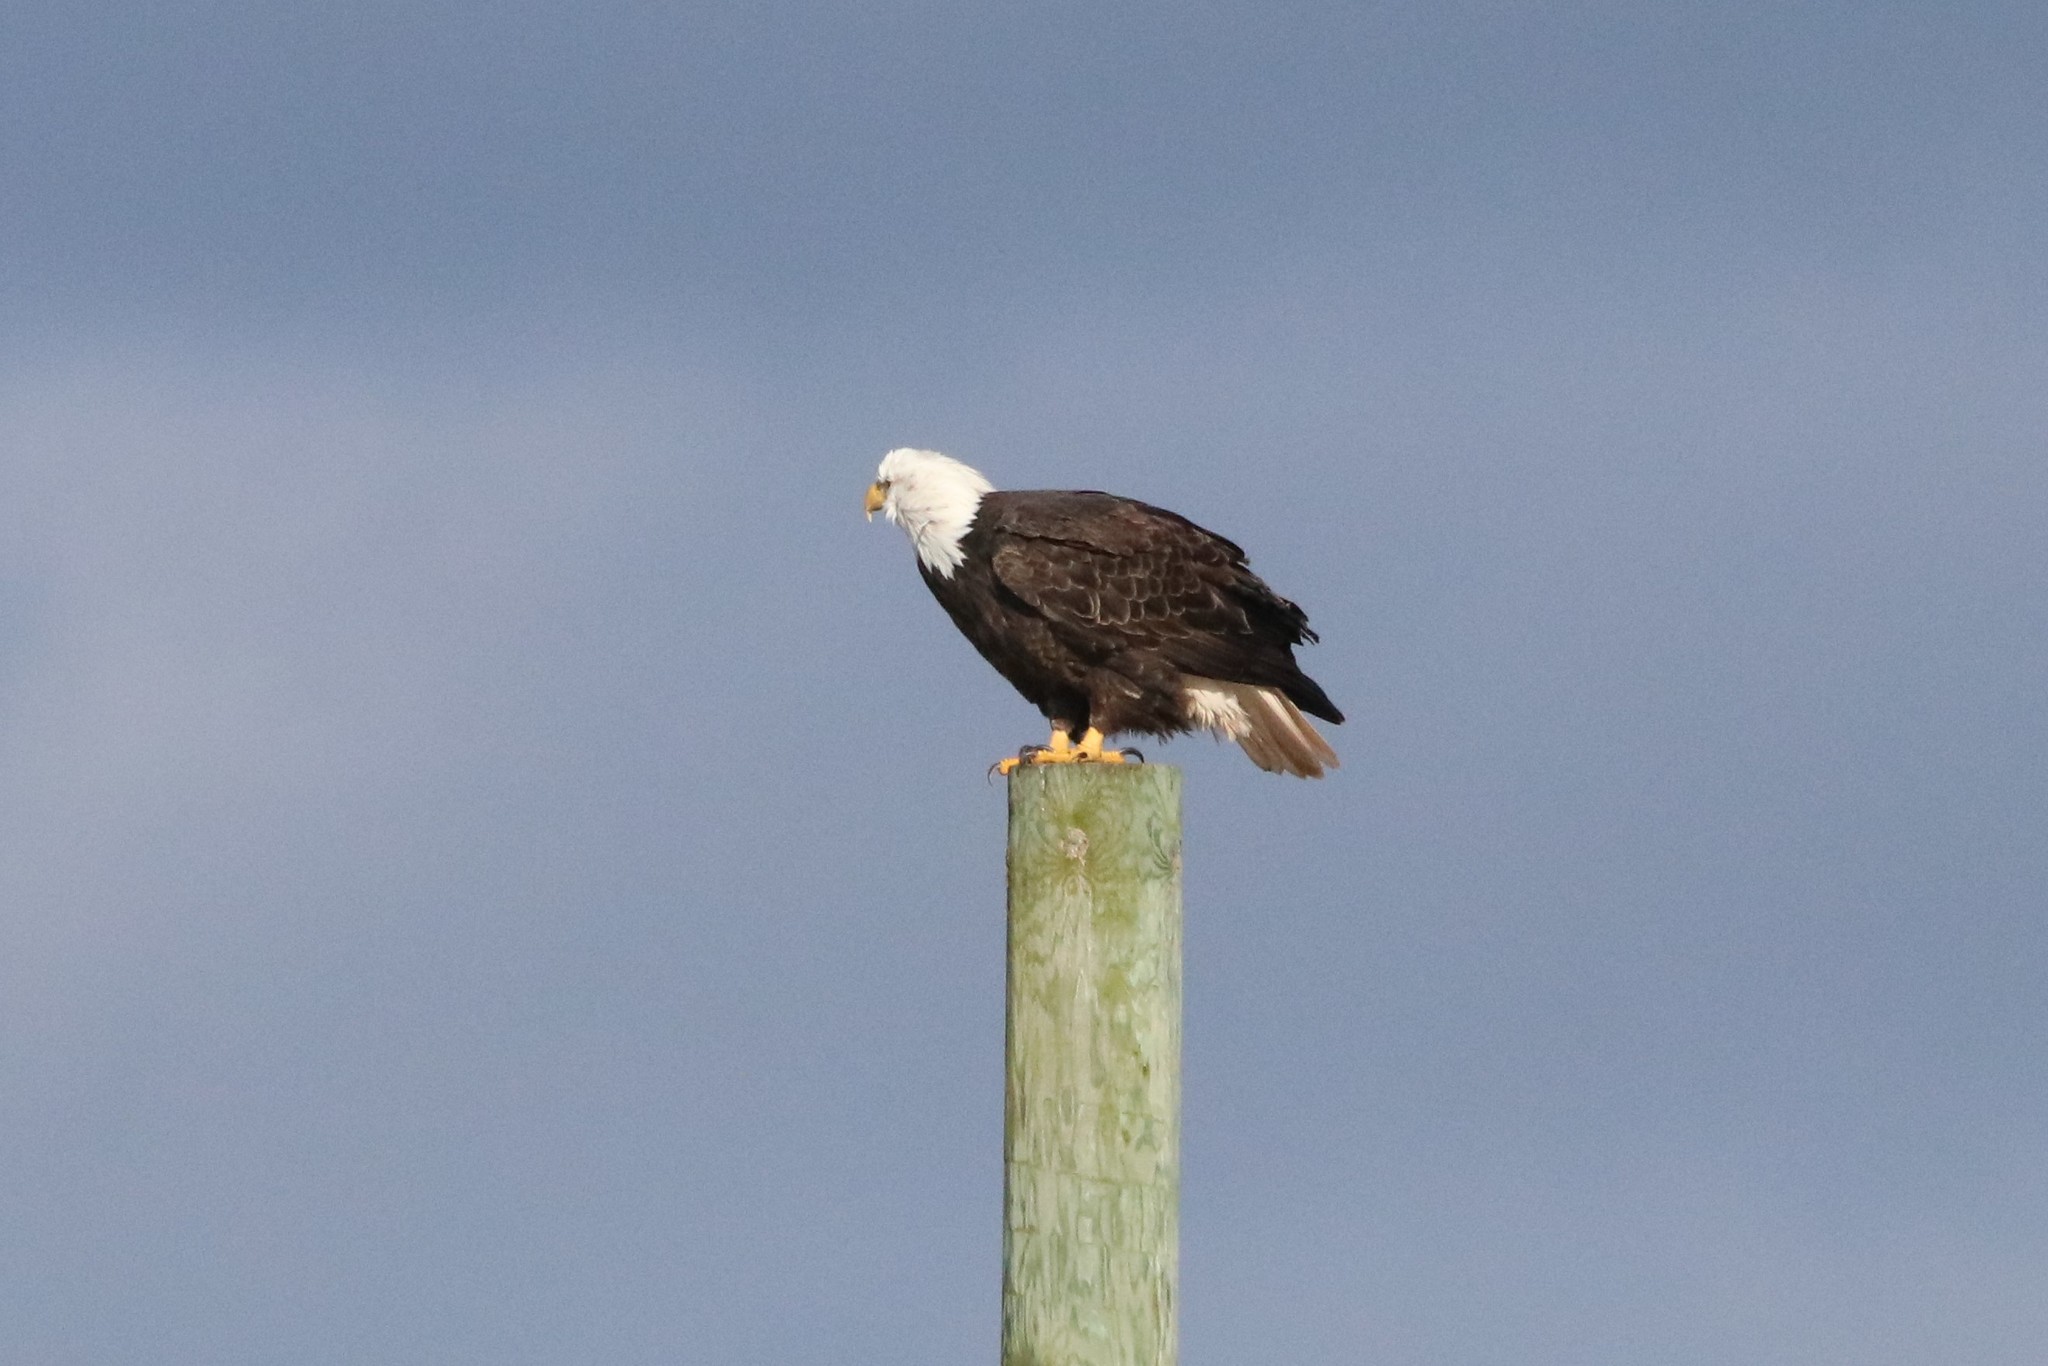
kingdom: Animalia
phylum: Chordata
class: Aves
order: Accipitriformes
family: Accipitridae
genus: Haliaeetus
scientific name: Haliaeetus leucocephalus
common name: Bald eagle
